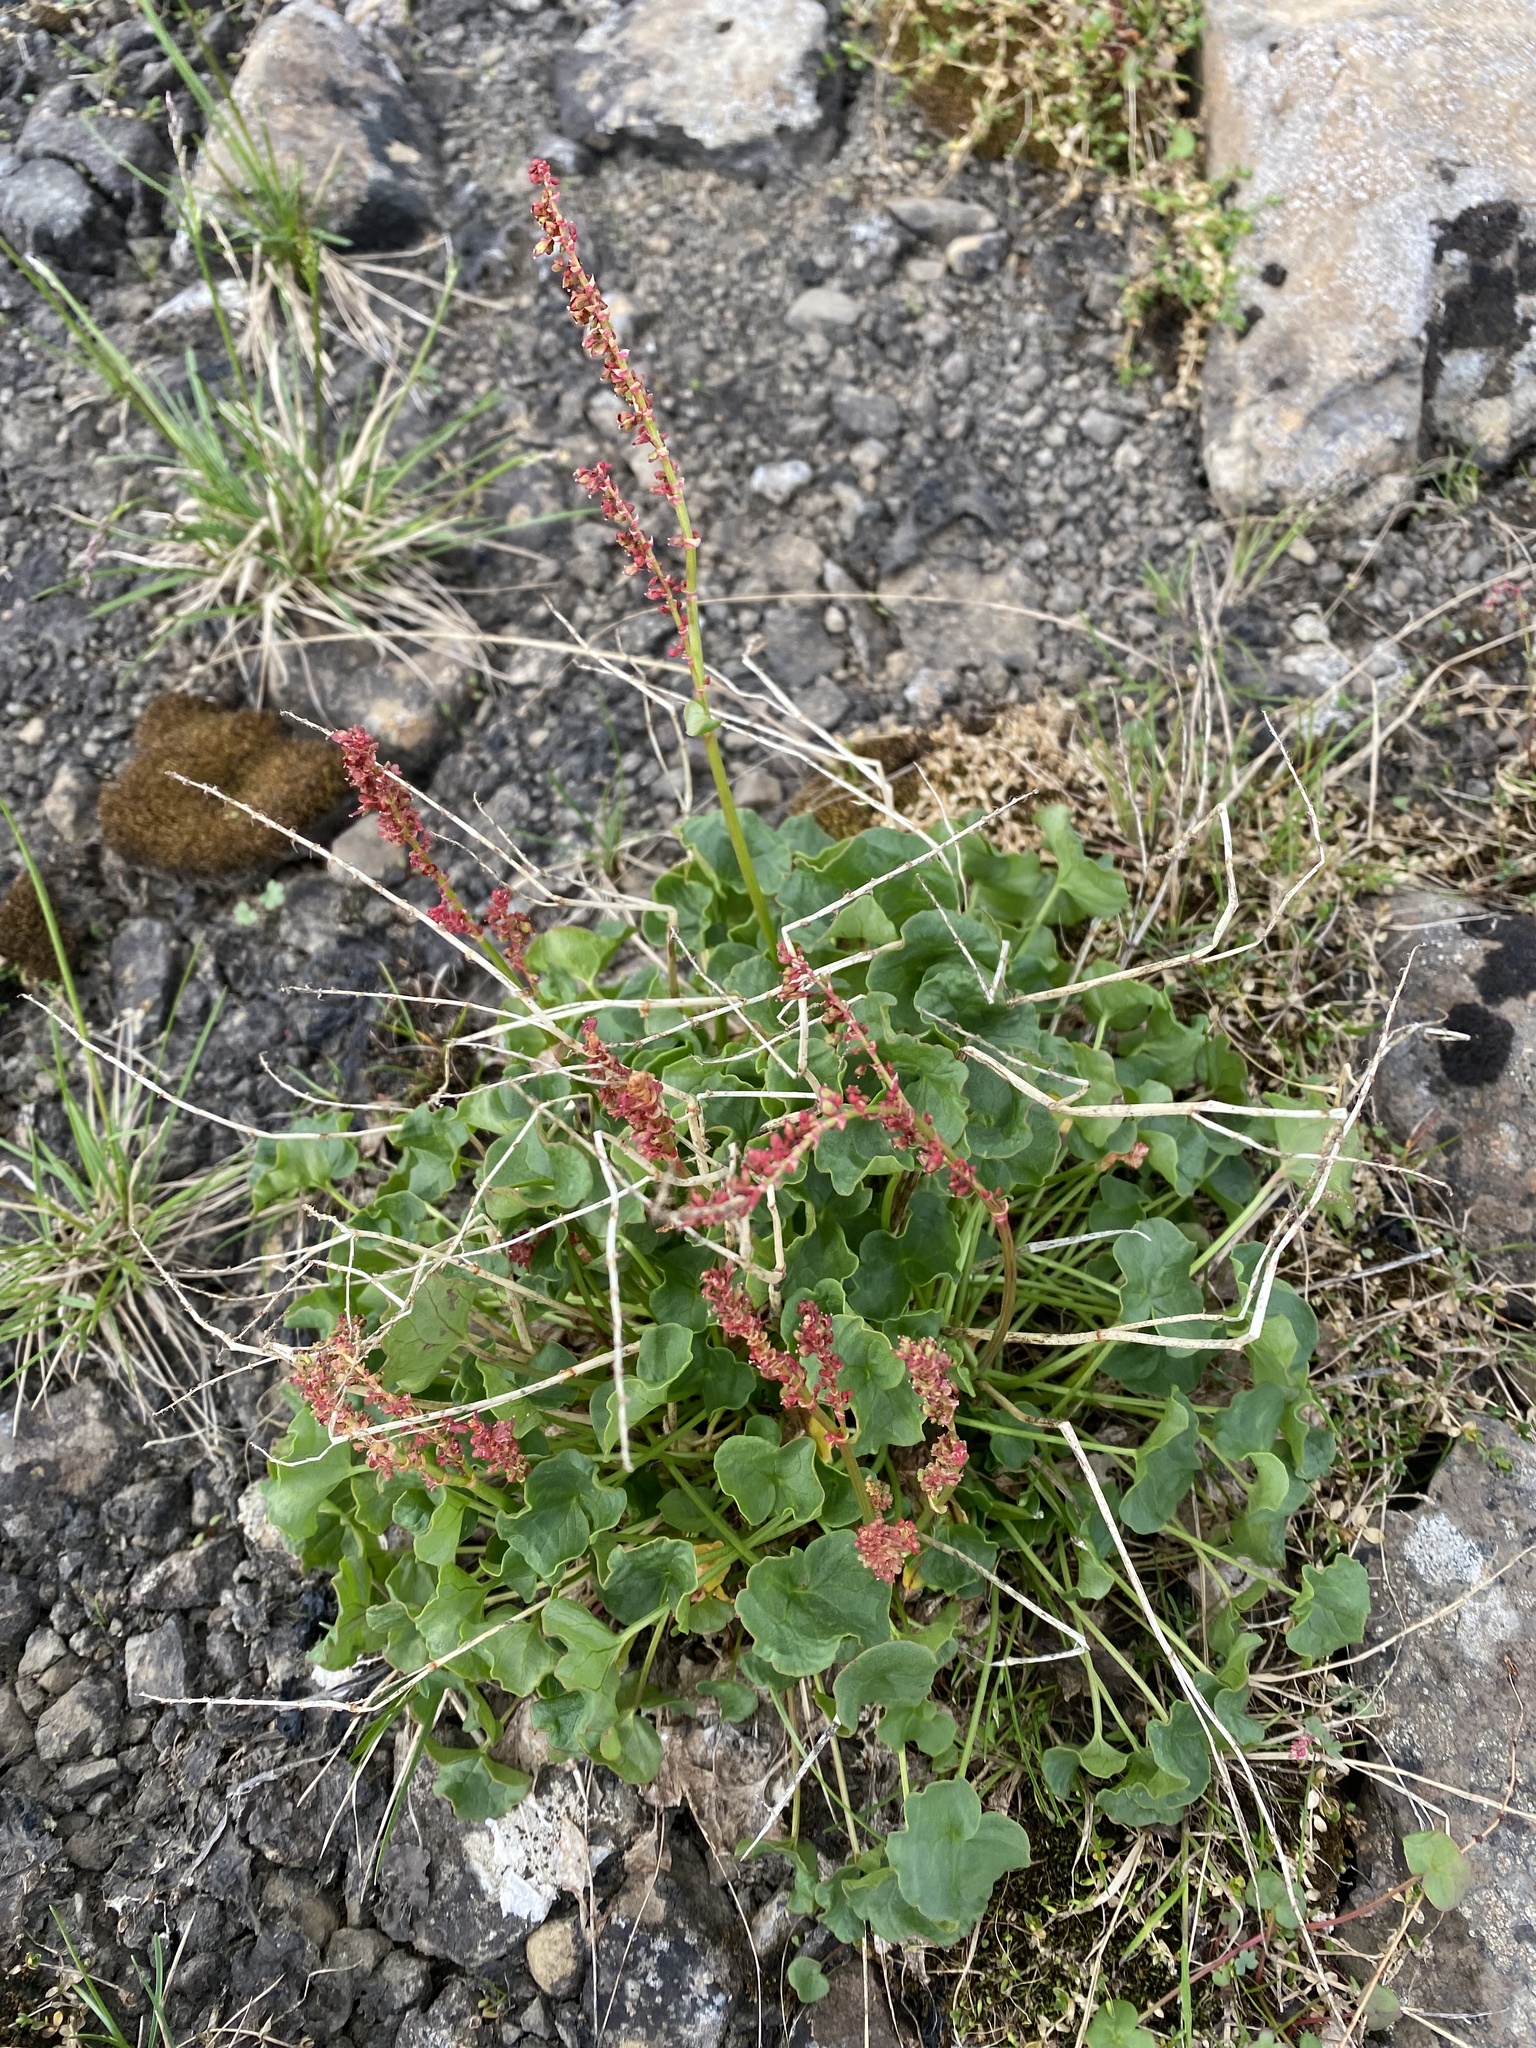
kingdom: Plantae
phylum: Tracheophyta
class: Magnoliopsida
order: Caryophyllales
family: Polygonaceae
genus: Oxyria
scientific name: Oxyria digyna
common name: Alpine mountain-sorrel
